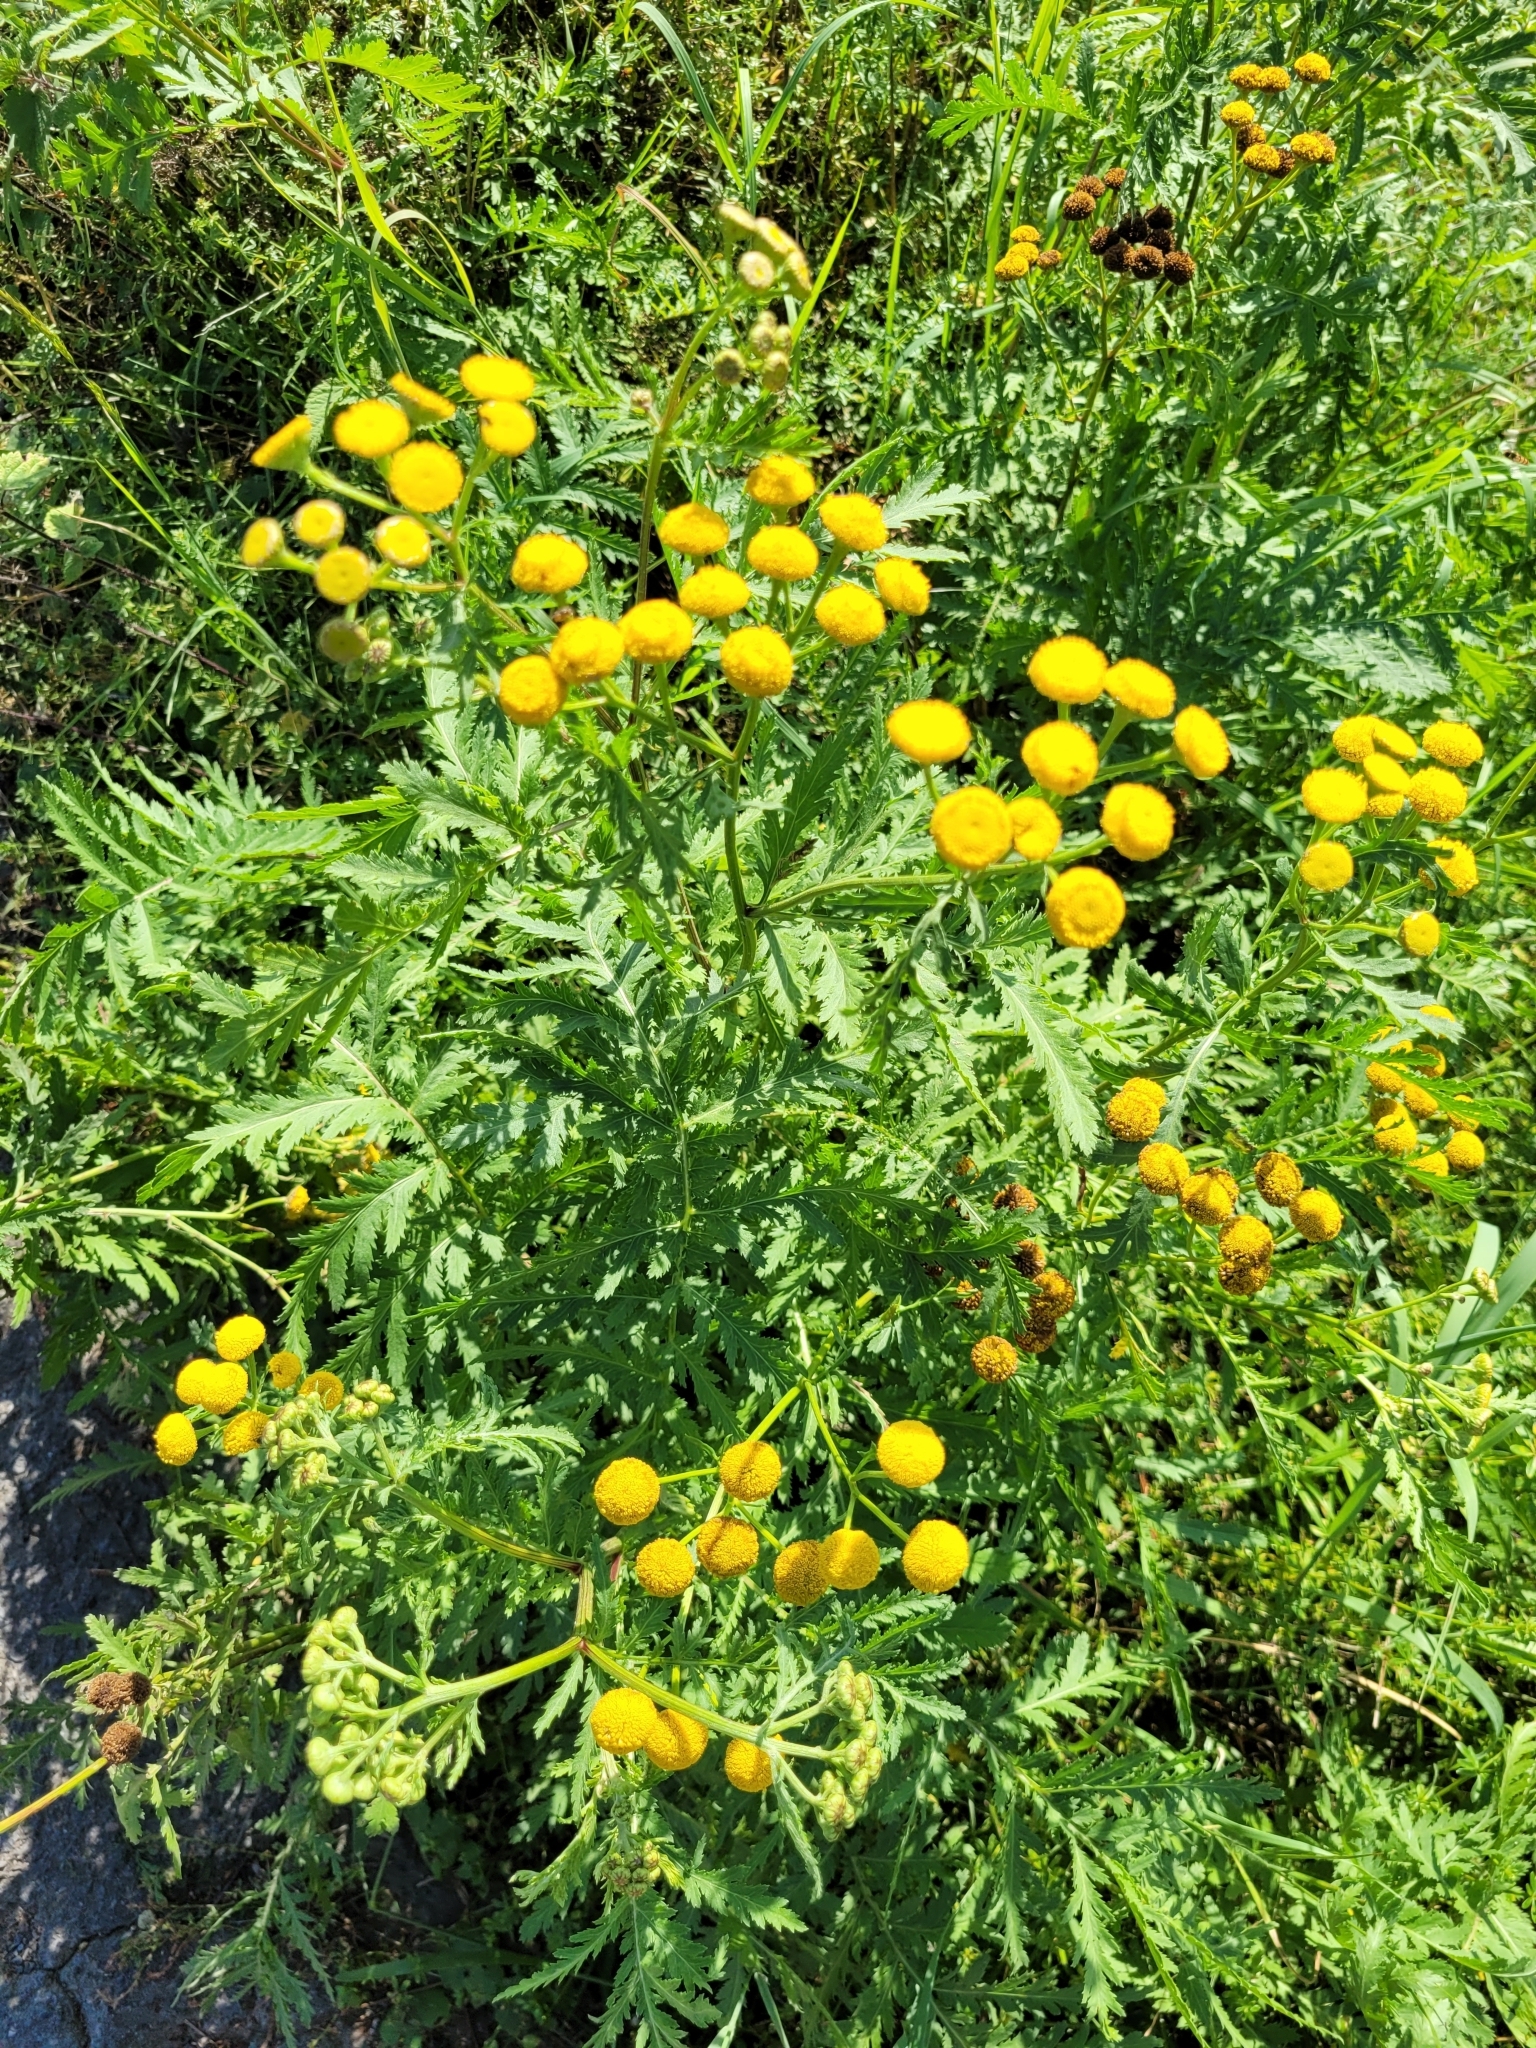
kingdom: Plantae
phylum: Tracheophyta
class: Magnoliopsida
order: Asterales
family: Asteraceae
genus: Tanacetum
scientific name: Tanacetum vulgare
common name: Common tansy
